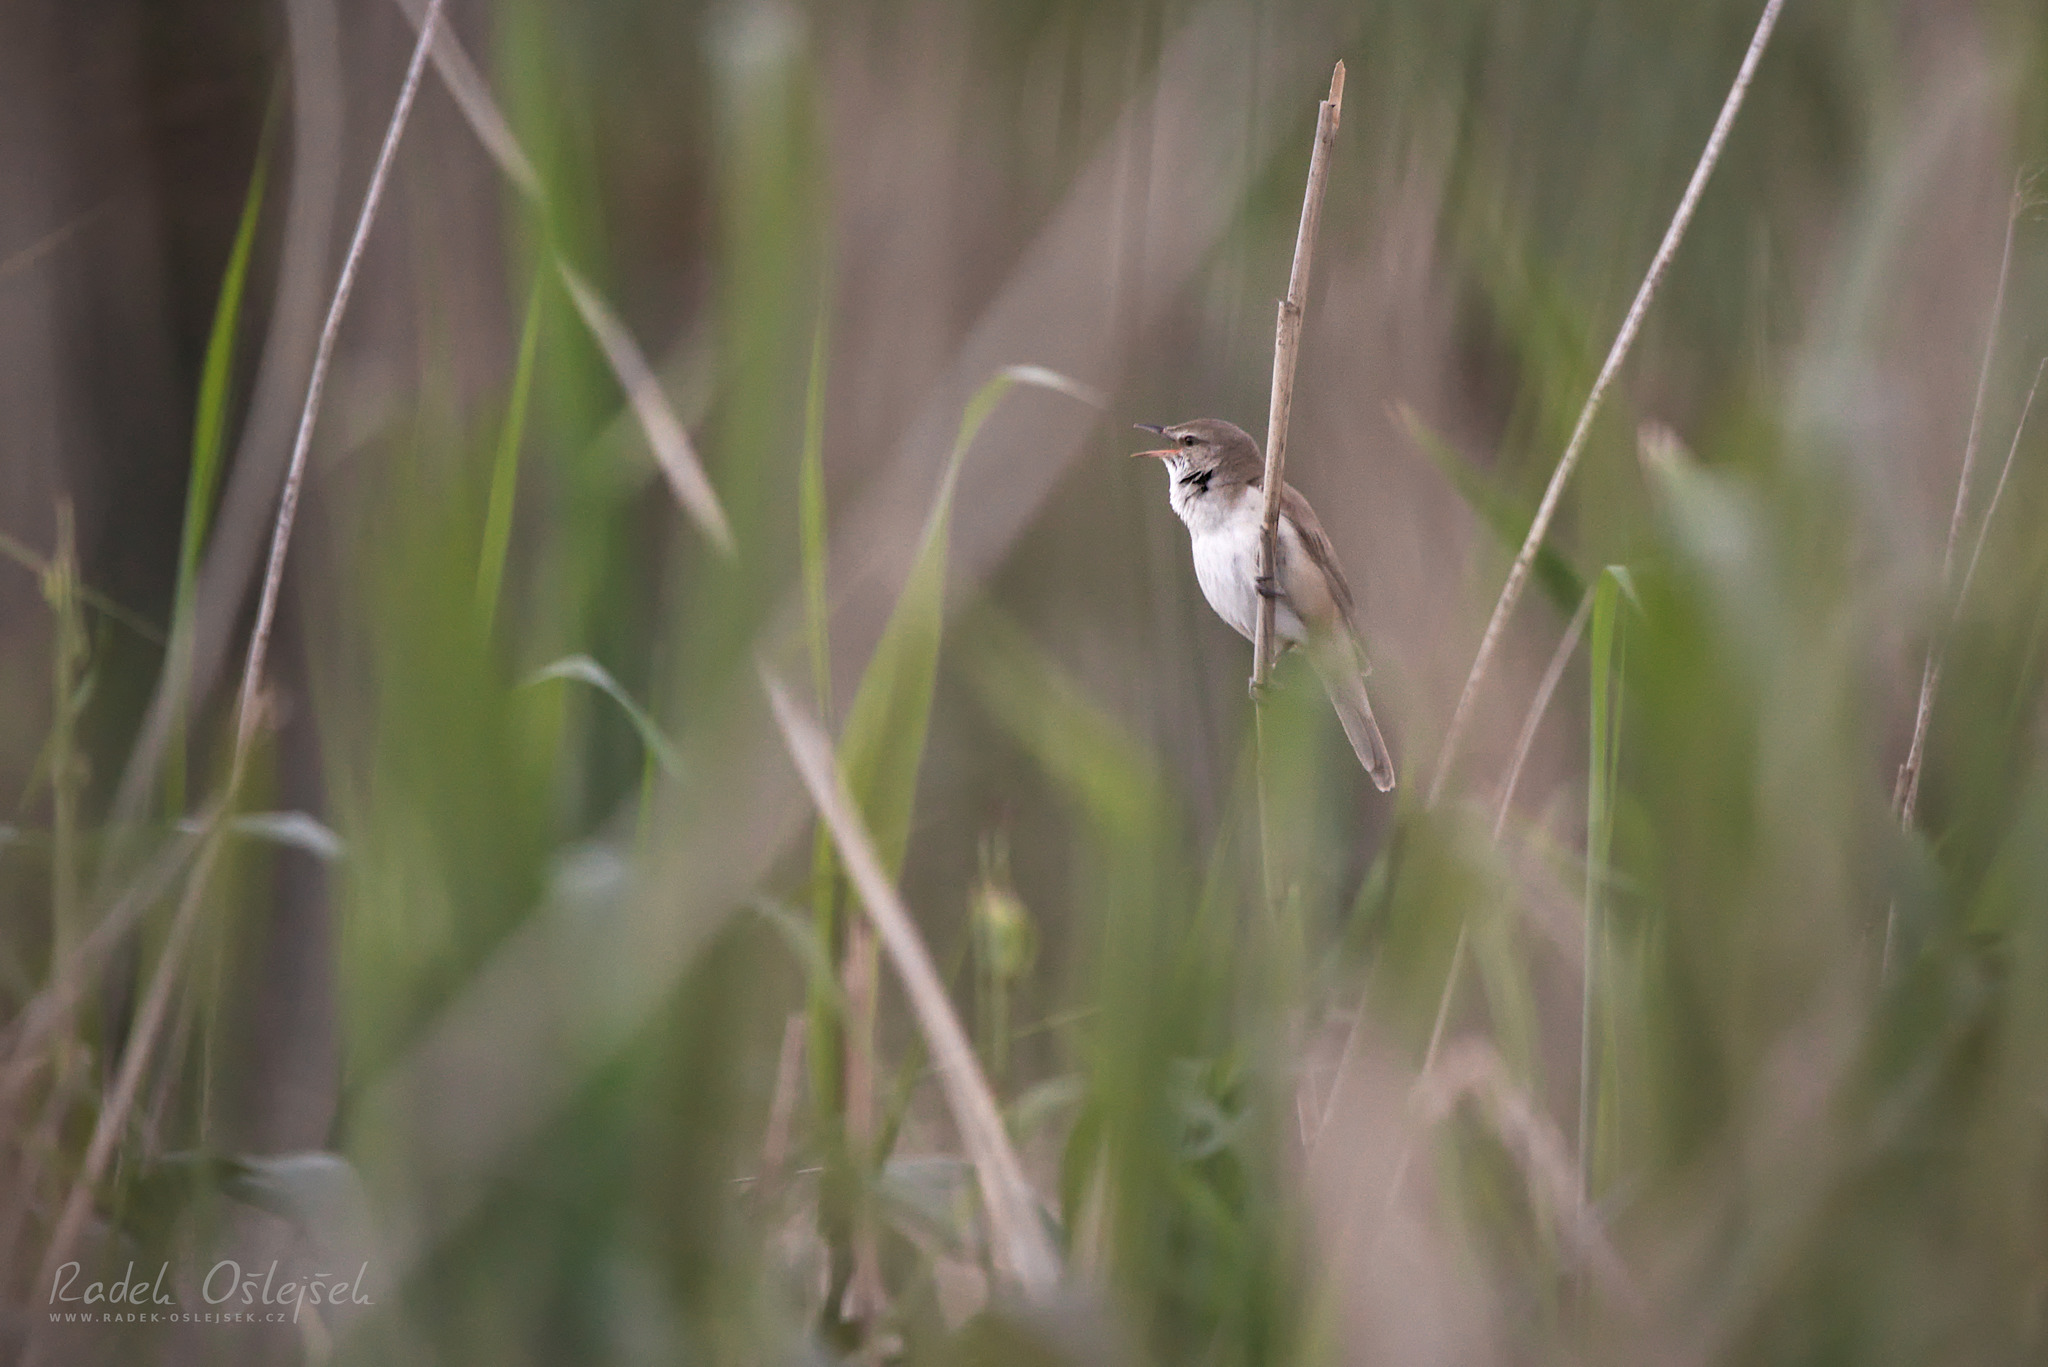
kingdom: Animalia
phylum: Chordata
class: Aves
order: Passeriformes
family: Acrocephalidae
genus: Acrocephalus
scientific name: Acrocephalus arundinaceus
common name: Great reed warbler
